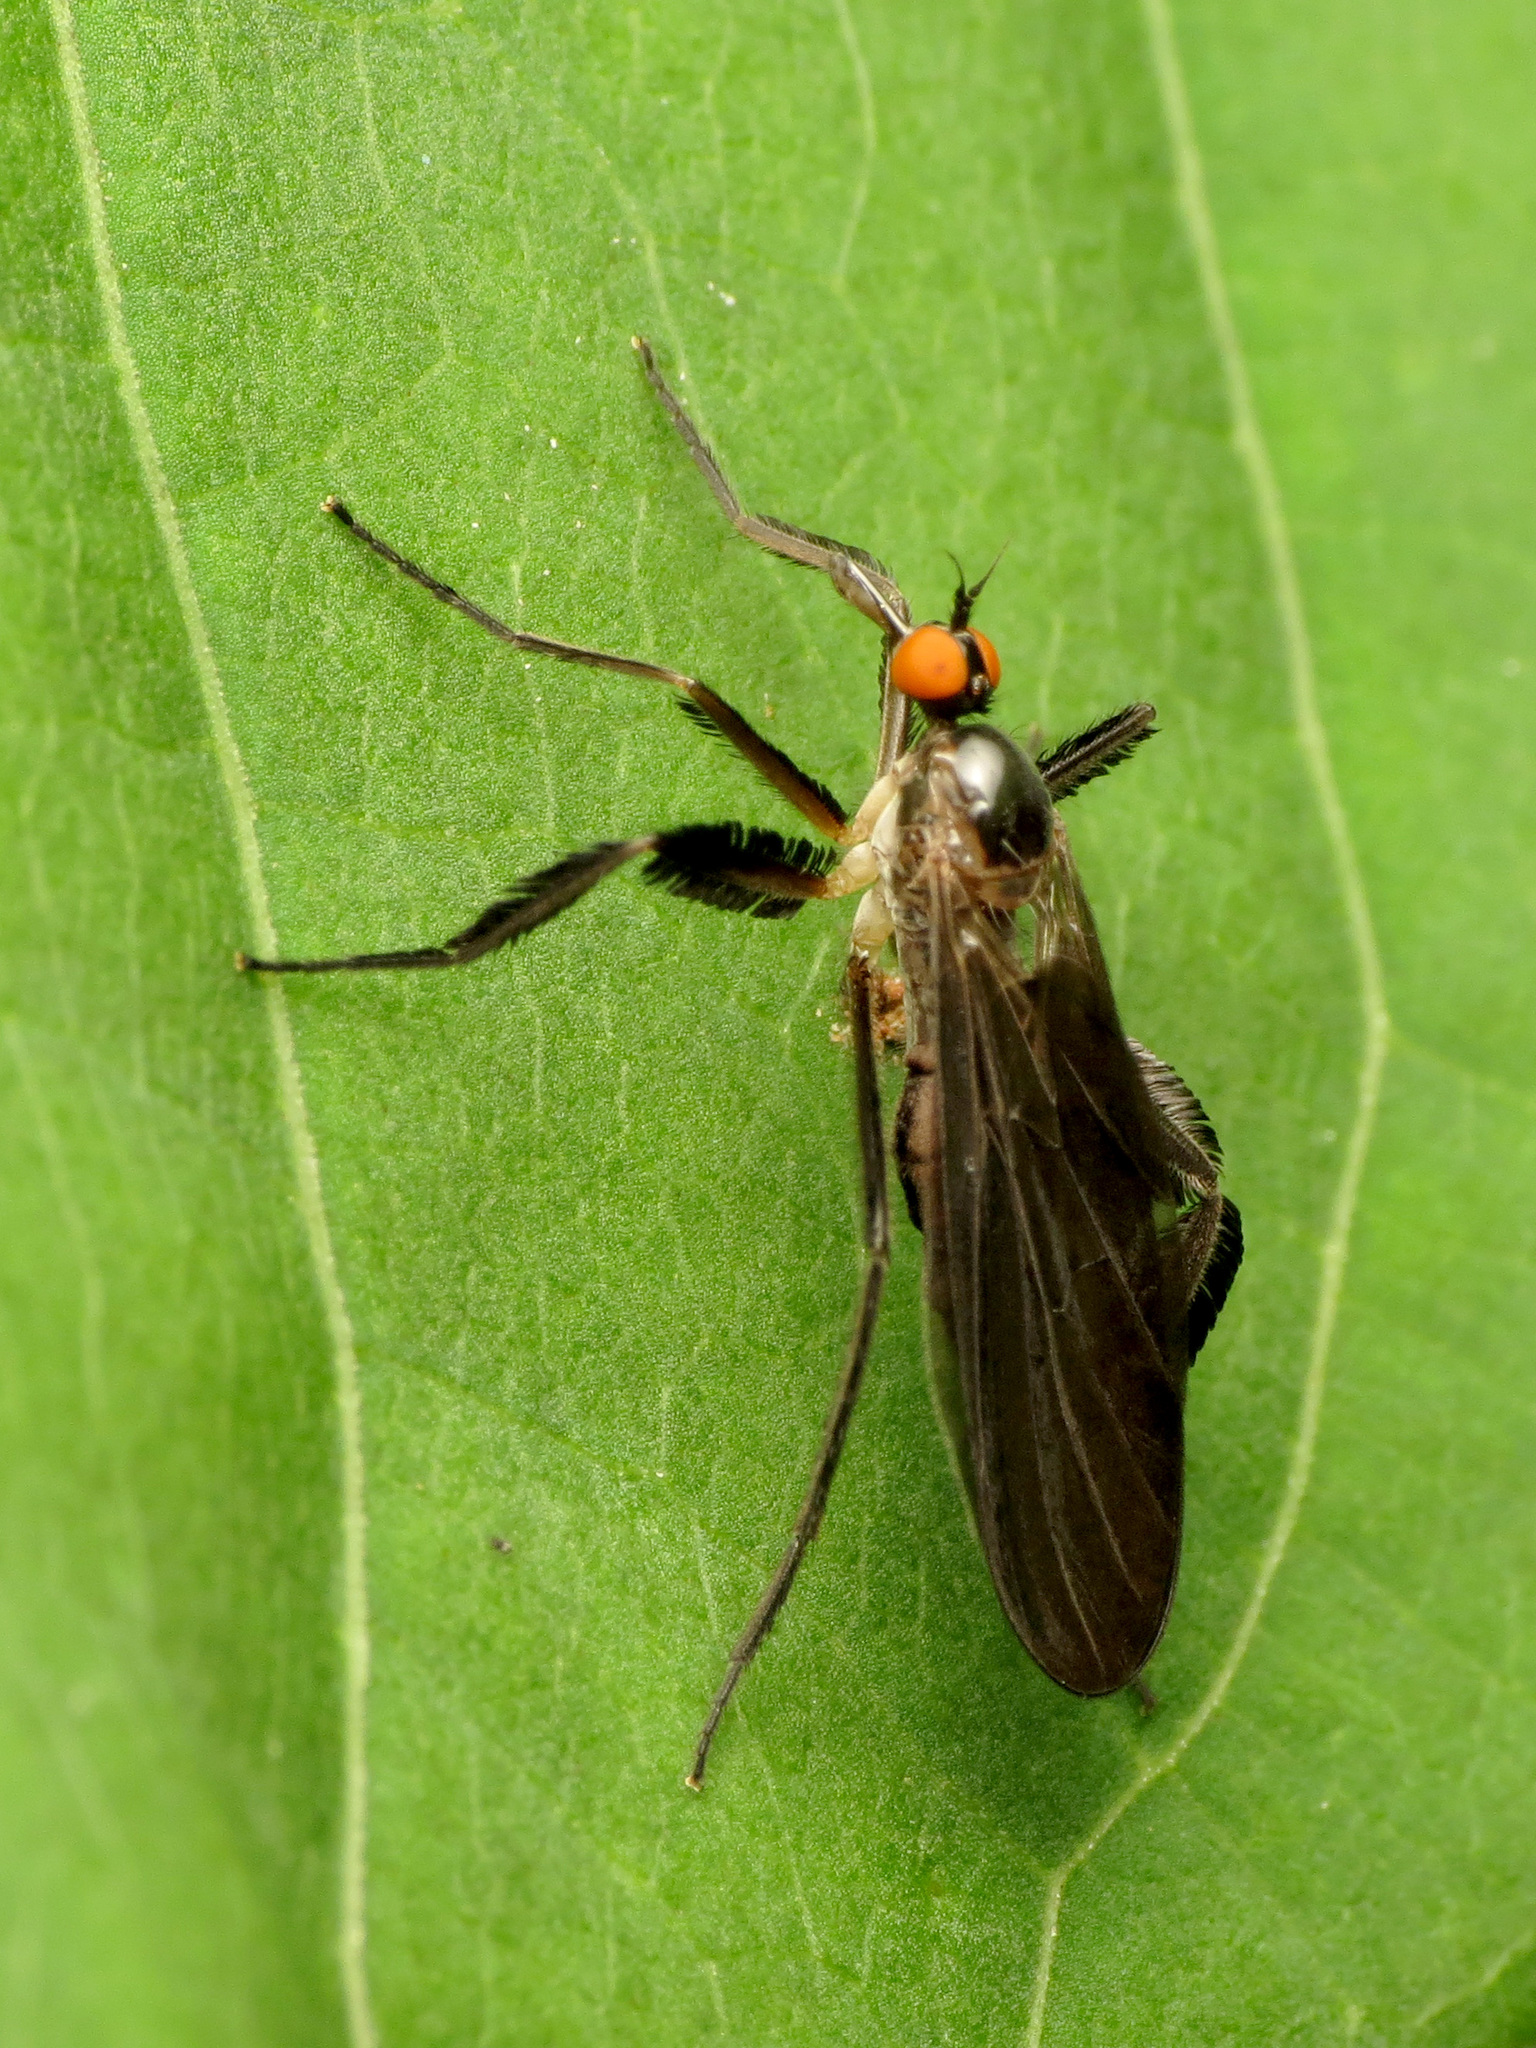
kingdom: Animalia
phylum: Arthropoda
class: Insecta
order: Diptera
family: Empididae
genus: Rhamphomyia
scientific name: Rhamphomyia longicauda
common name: Long-tailed dance fly
